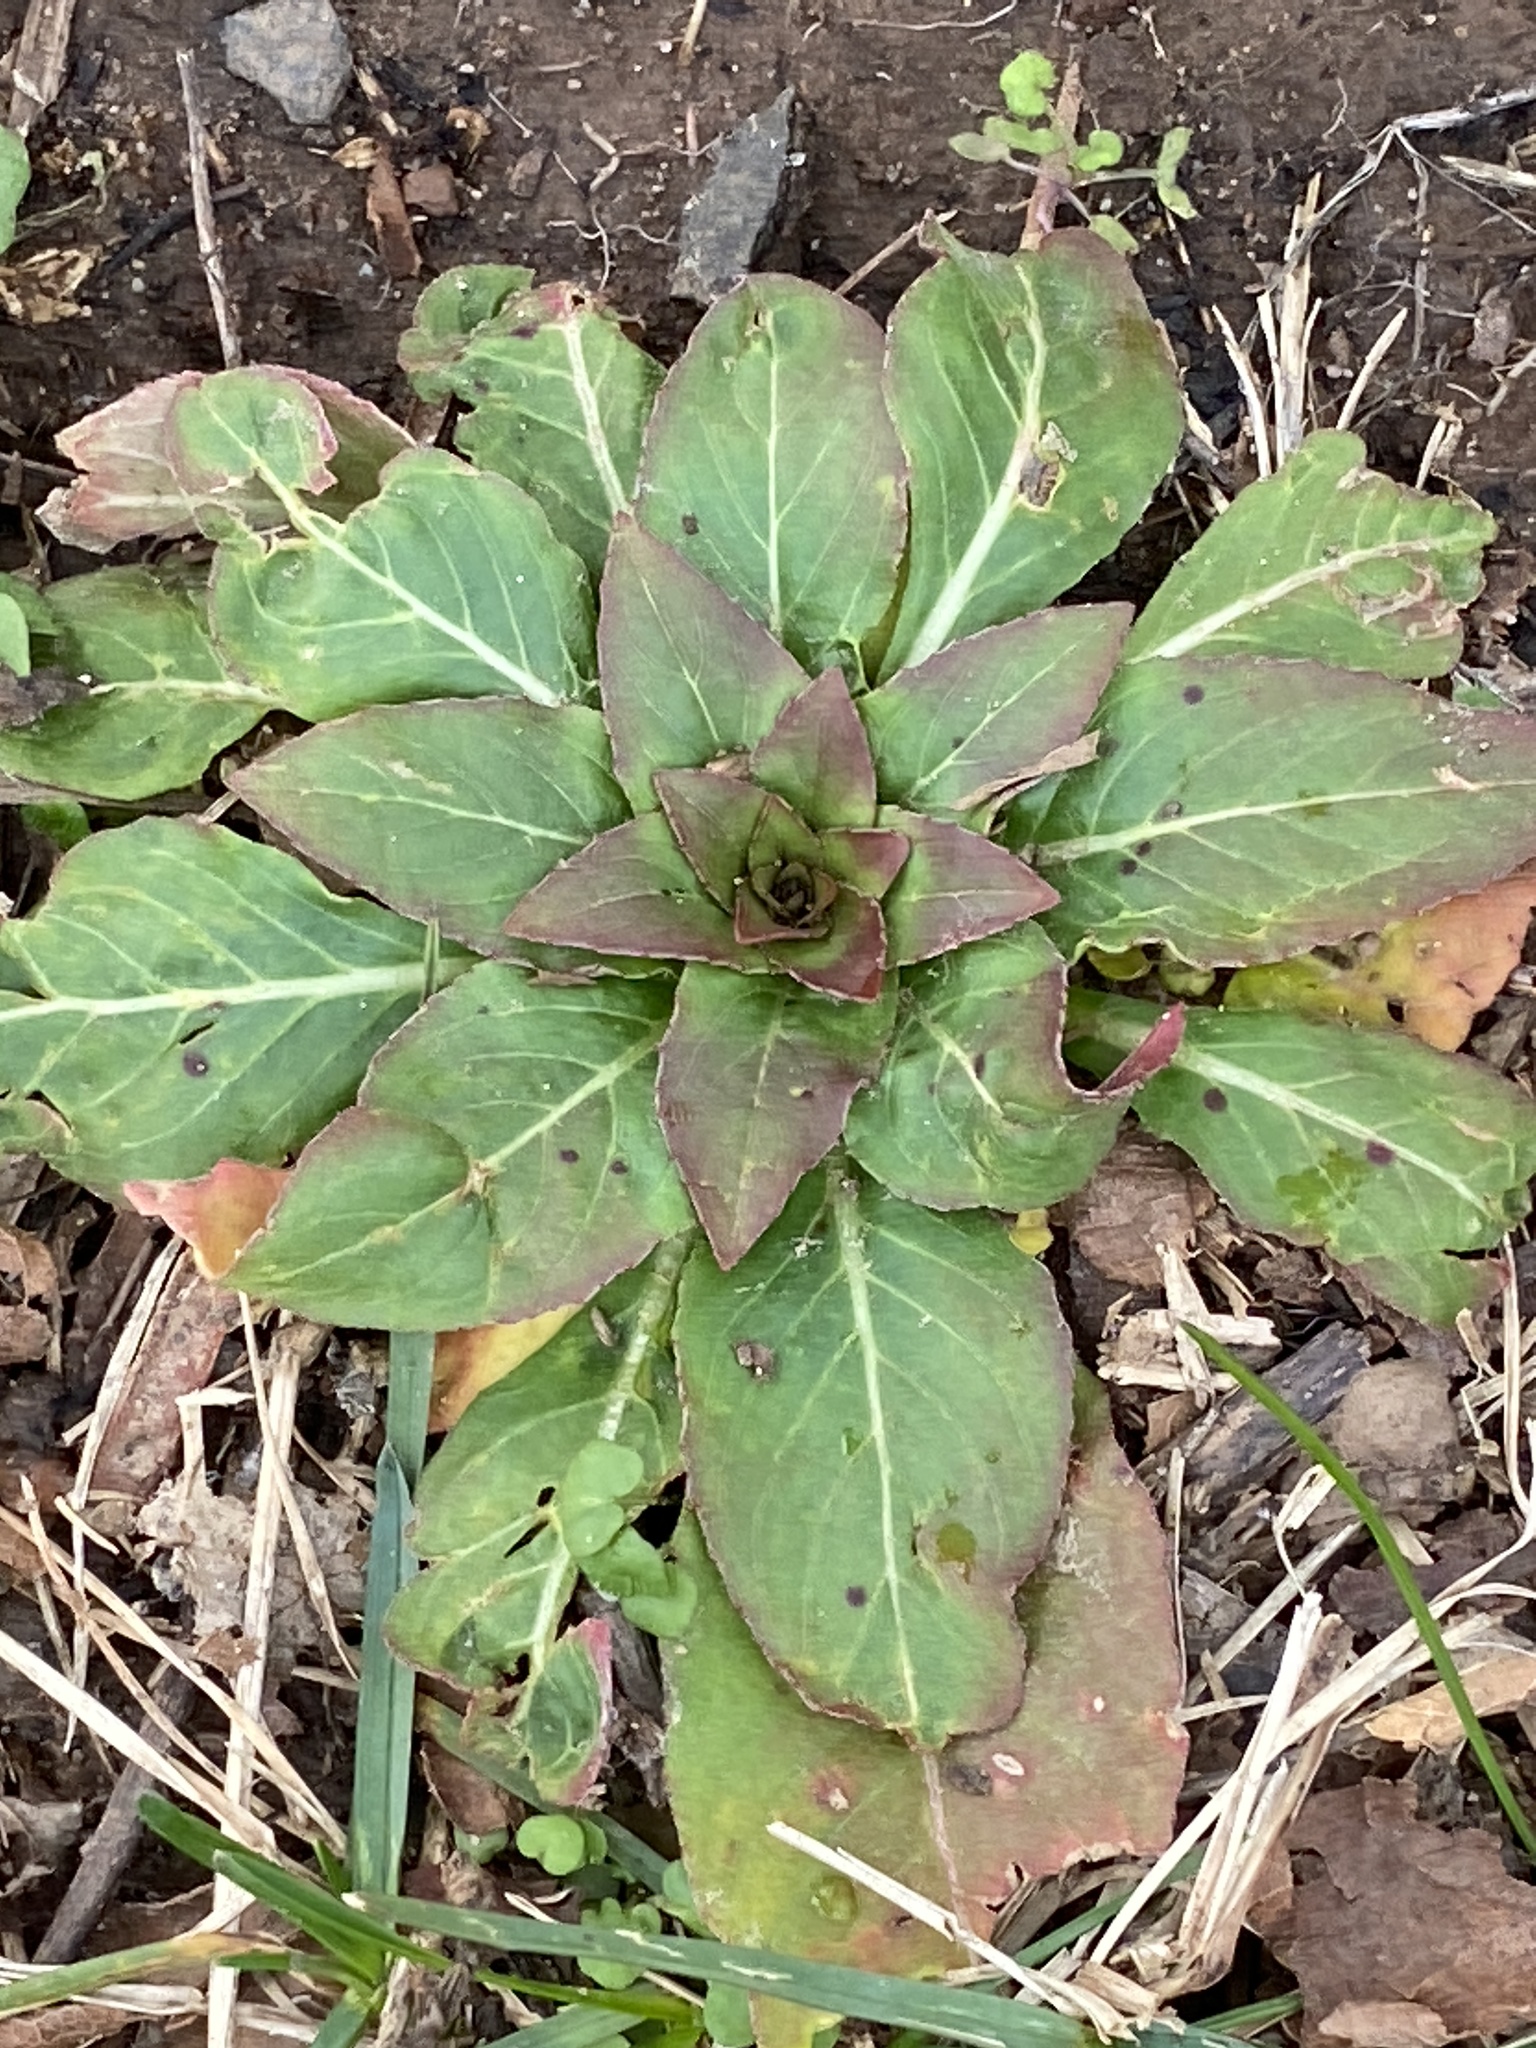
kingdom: Plantae
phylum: Tracheophyta
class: Magnoliopsida
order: Myrtales
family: Onagraceae
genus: Oenothera
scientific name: Oenothera biennis
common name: Common evening-primrose
